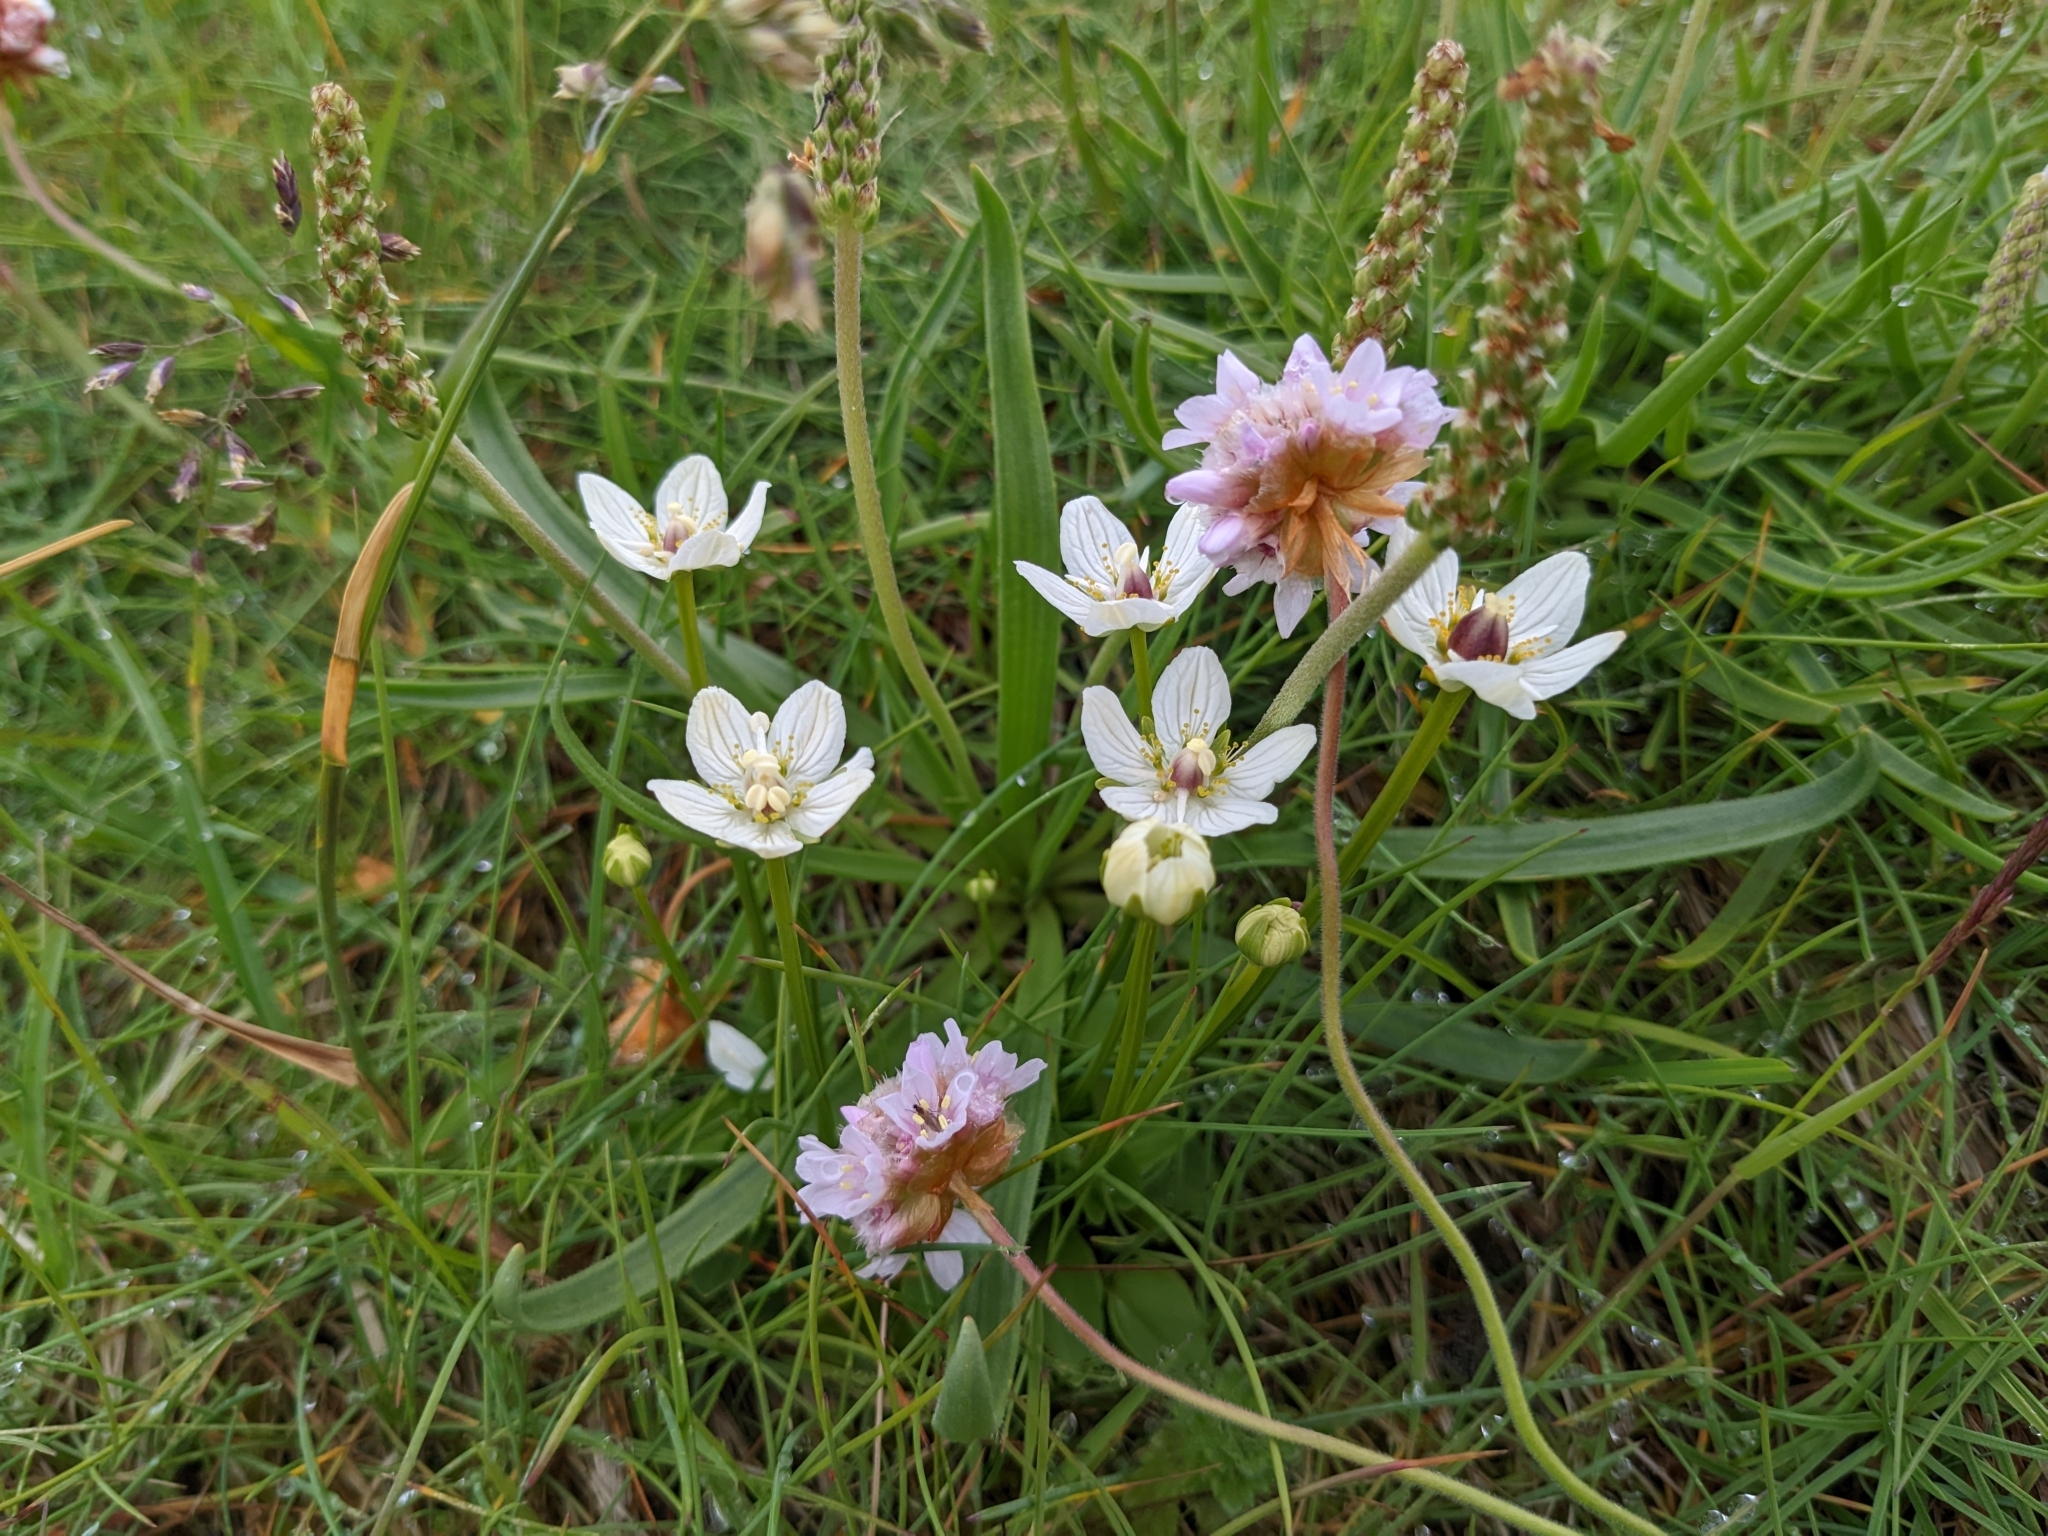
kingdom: Plantae
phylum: Tracheophyta
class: Magnoliopsida
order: Celastrales
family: Parnassiaceae
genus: Parnassia
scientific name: Parnassia palustris
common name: Grass-of-parnassus
